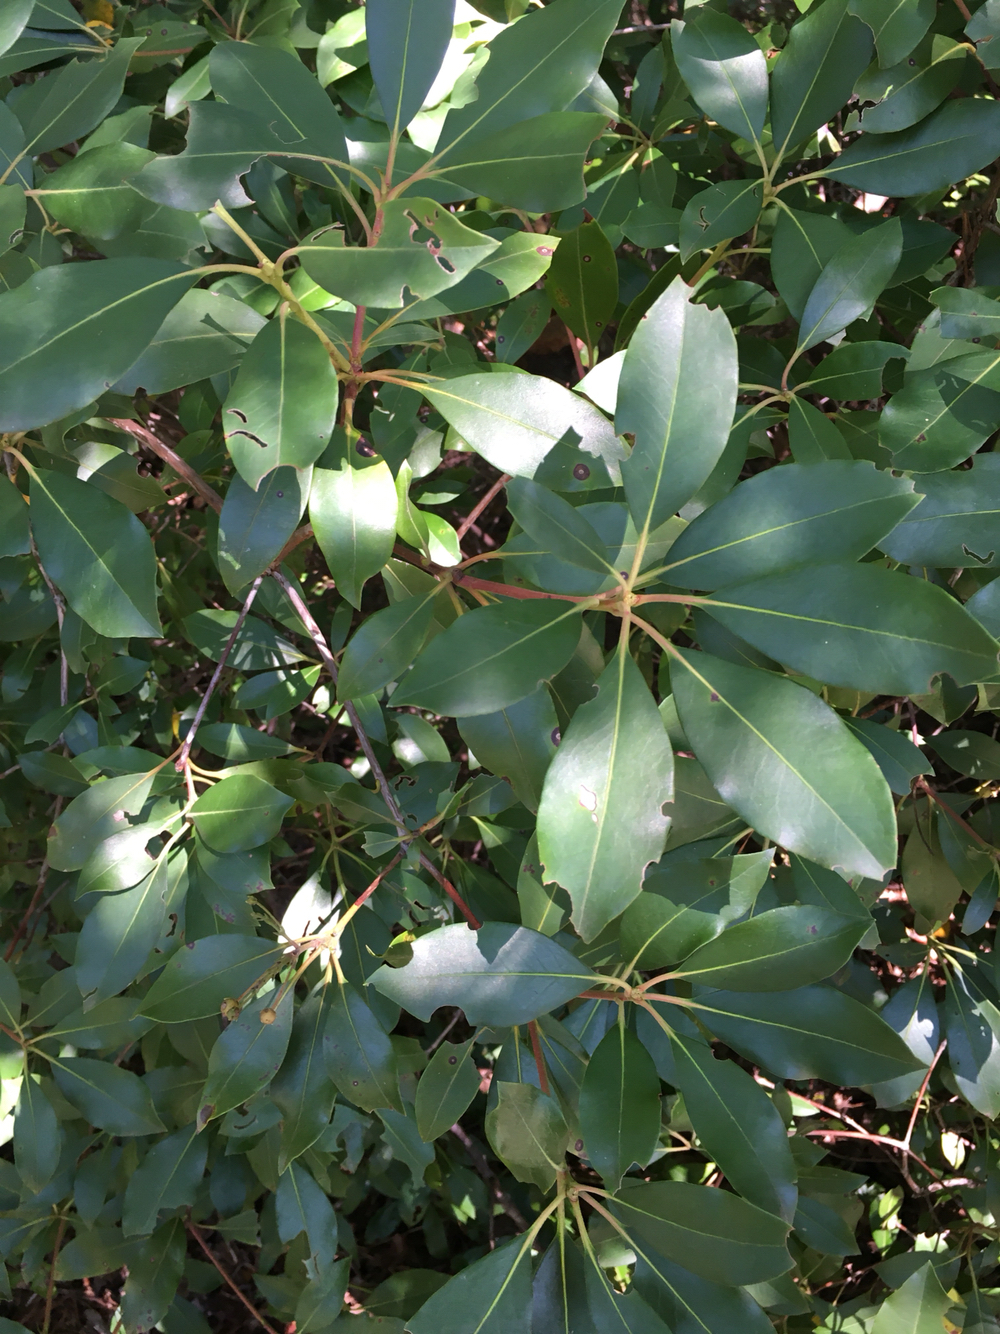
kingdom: Plantae
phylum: Tracheophyta
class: Magnoliopsida
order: Ericales
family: Ericaceae
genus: Kalmia
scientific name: Kalmia latifolia
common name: Mountain-laurel
